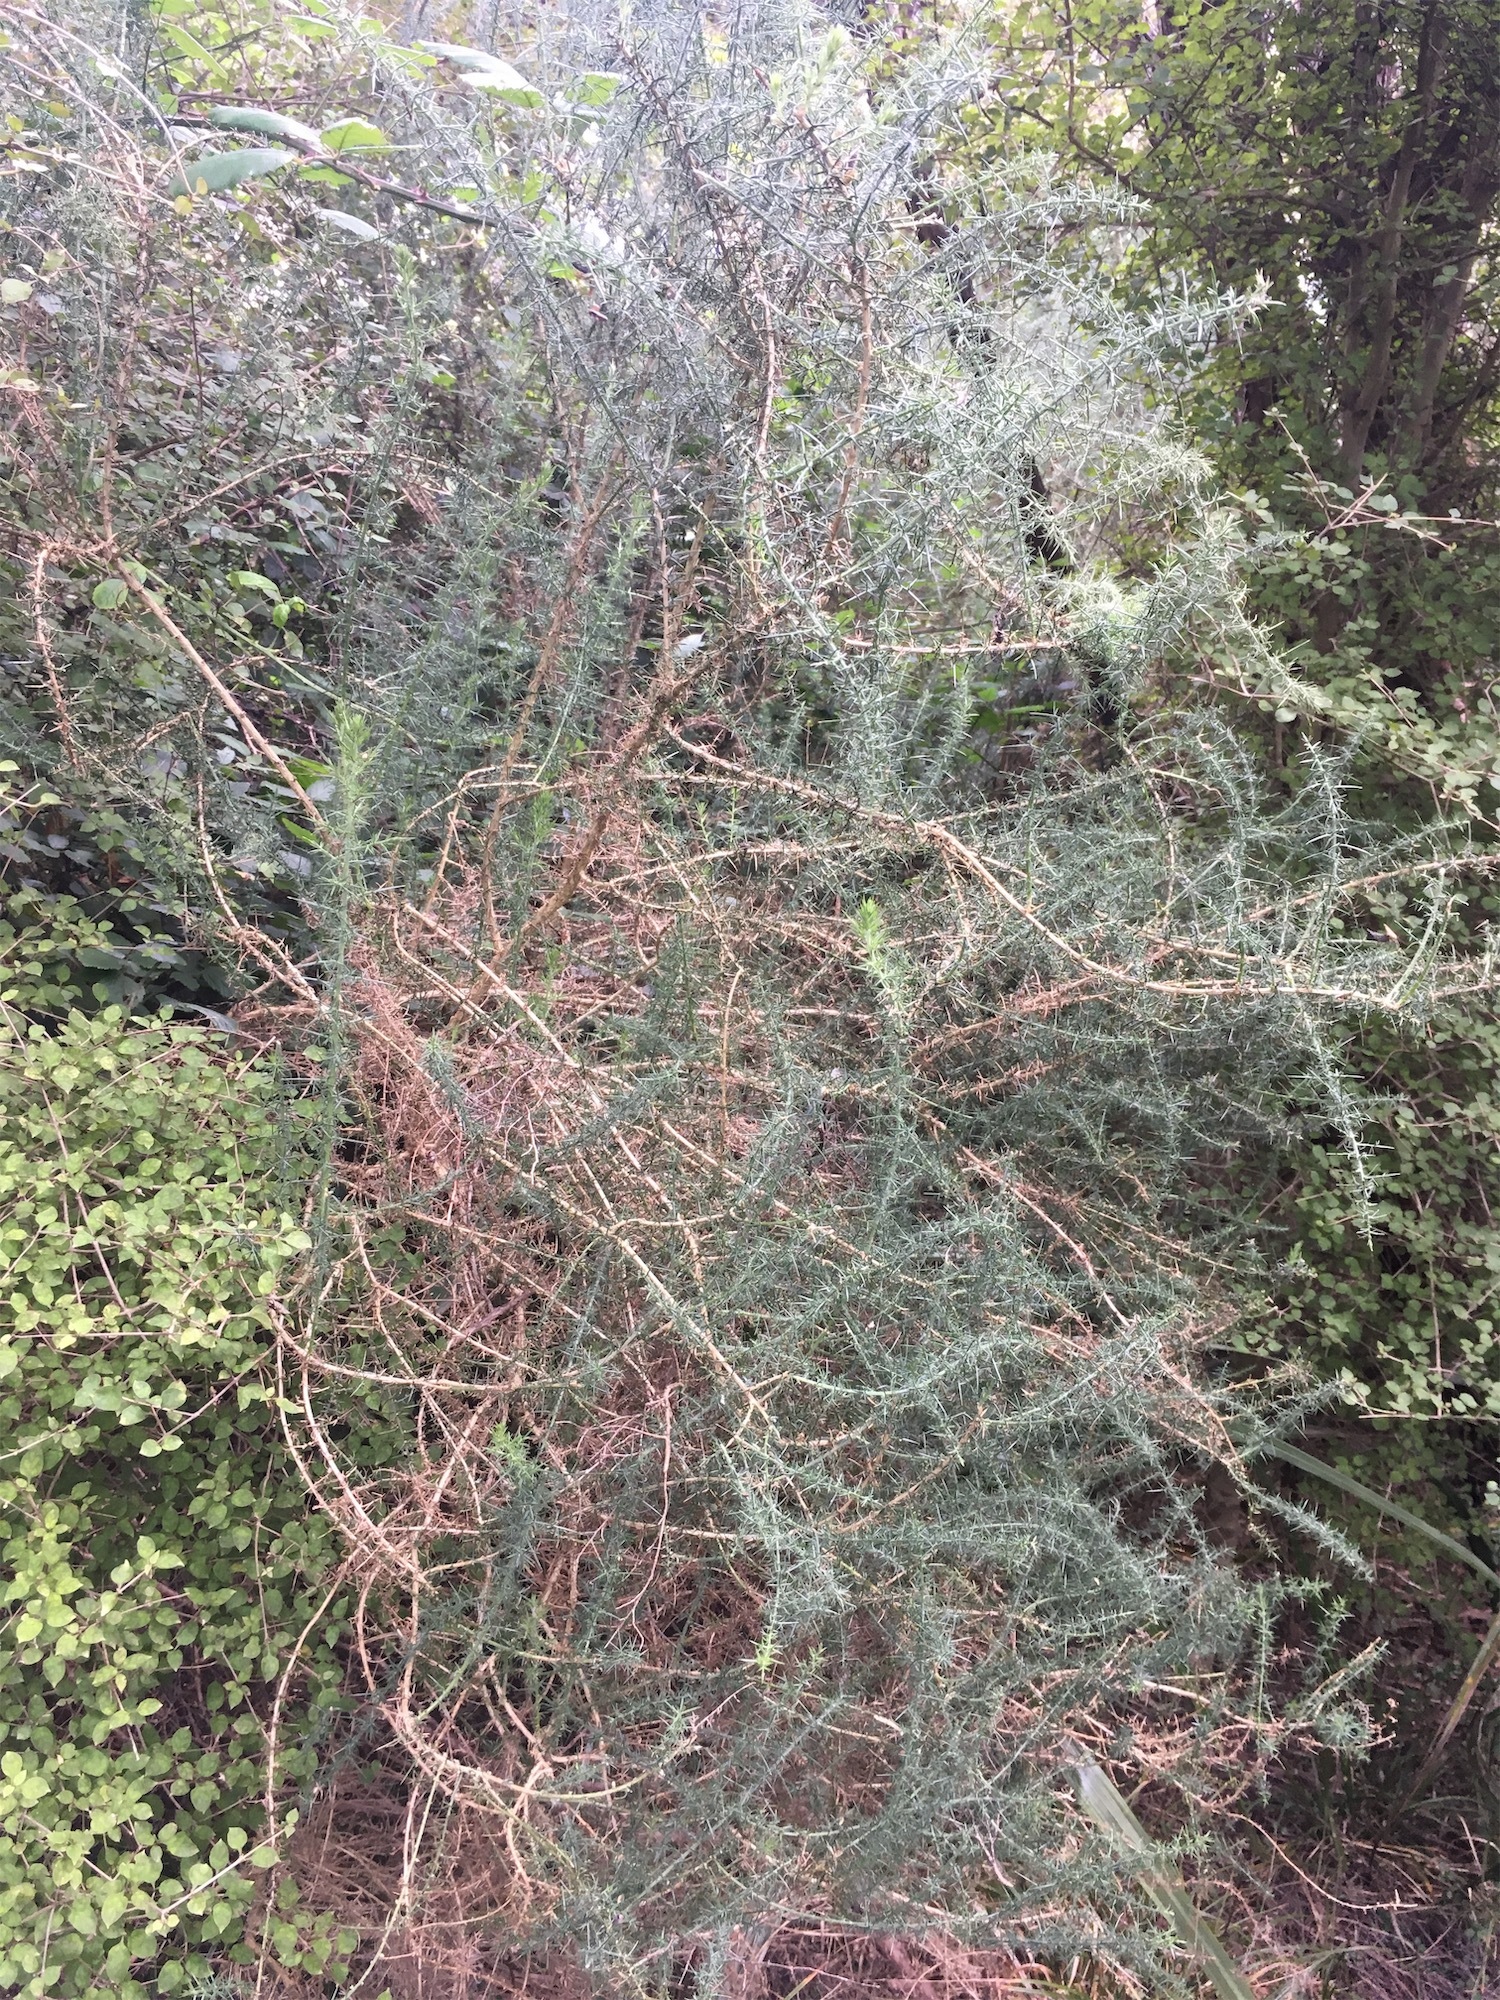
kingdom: Plantae
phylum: Tracheophyta
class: Magnoliopsida
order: Fabales
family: Fabaceae
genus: Ulex
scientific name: Ulex europaeus
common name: Common gorse
